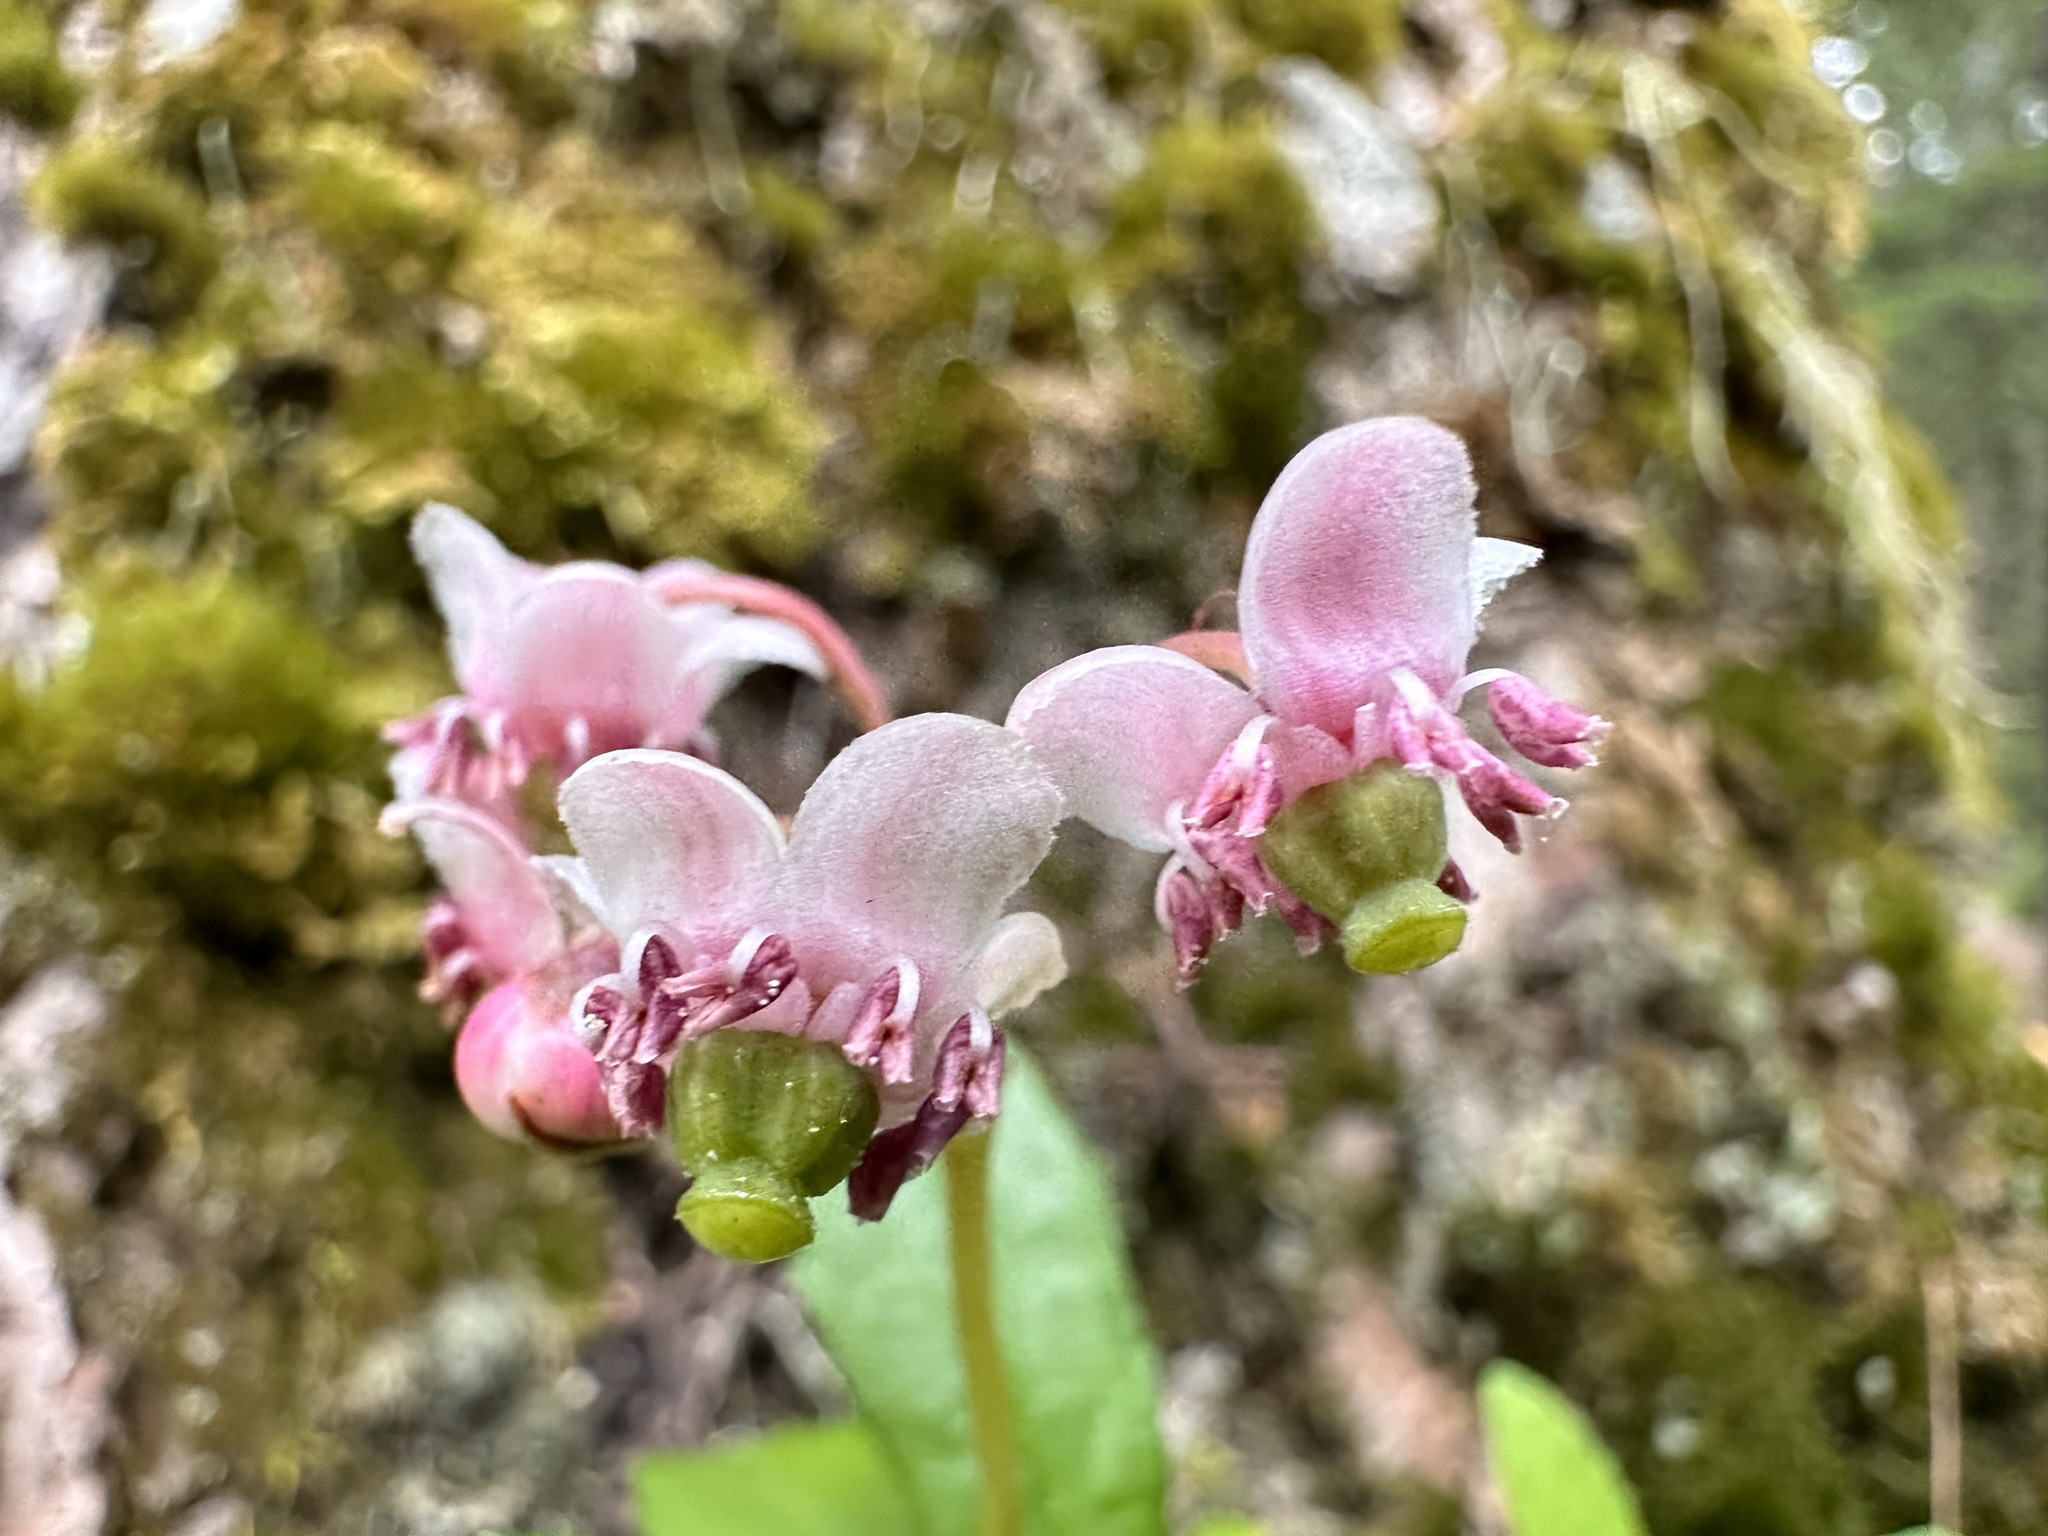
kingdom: Plantae
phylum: Tracheophyta
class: Magnoliopsida
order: Ericales
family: Ericaceae
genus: Chimaphila
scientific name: Chimaphila umbellata
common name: Pipsissewa
